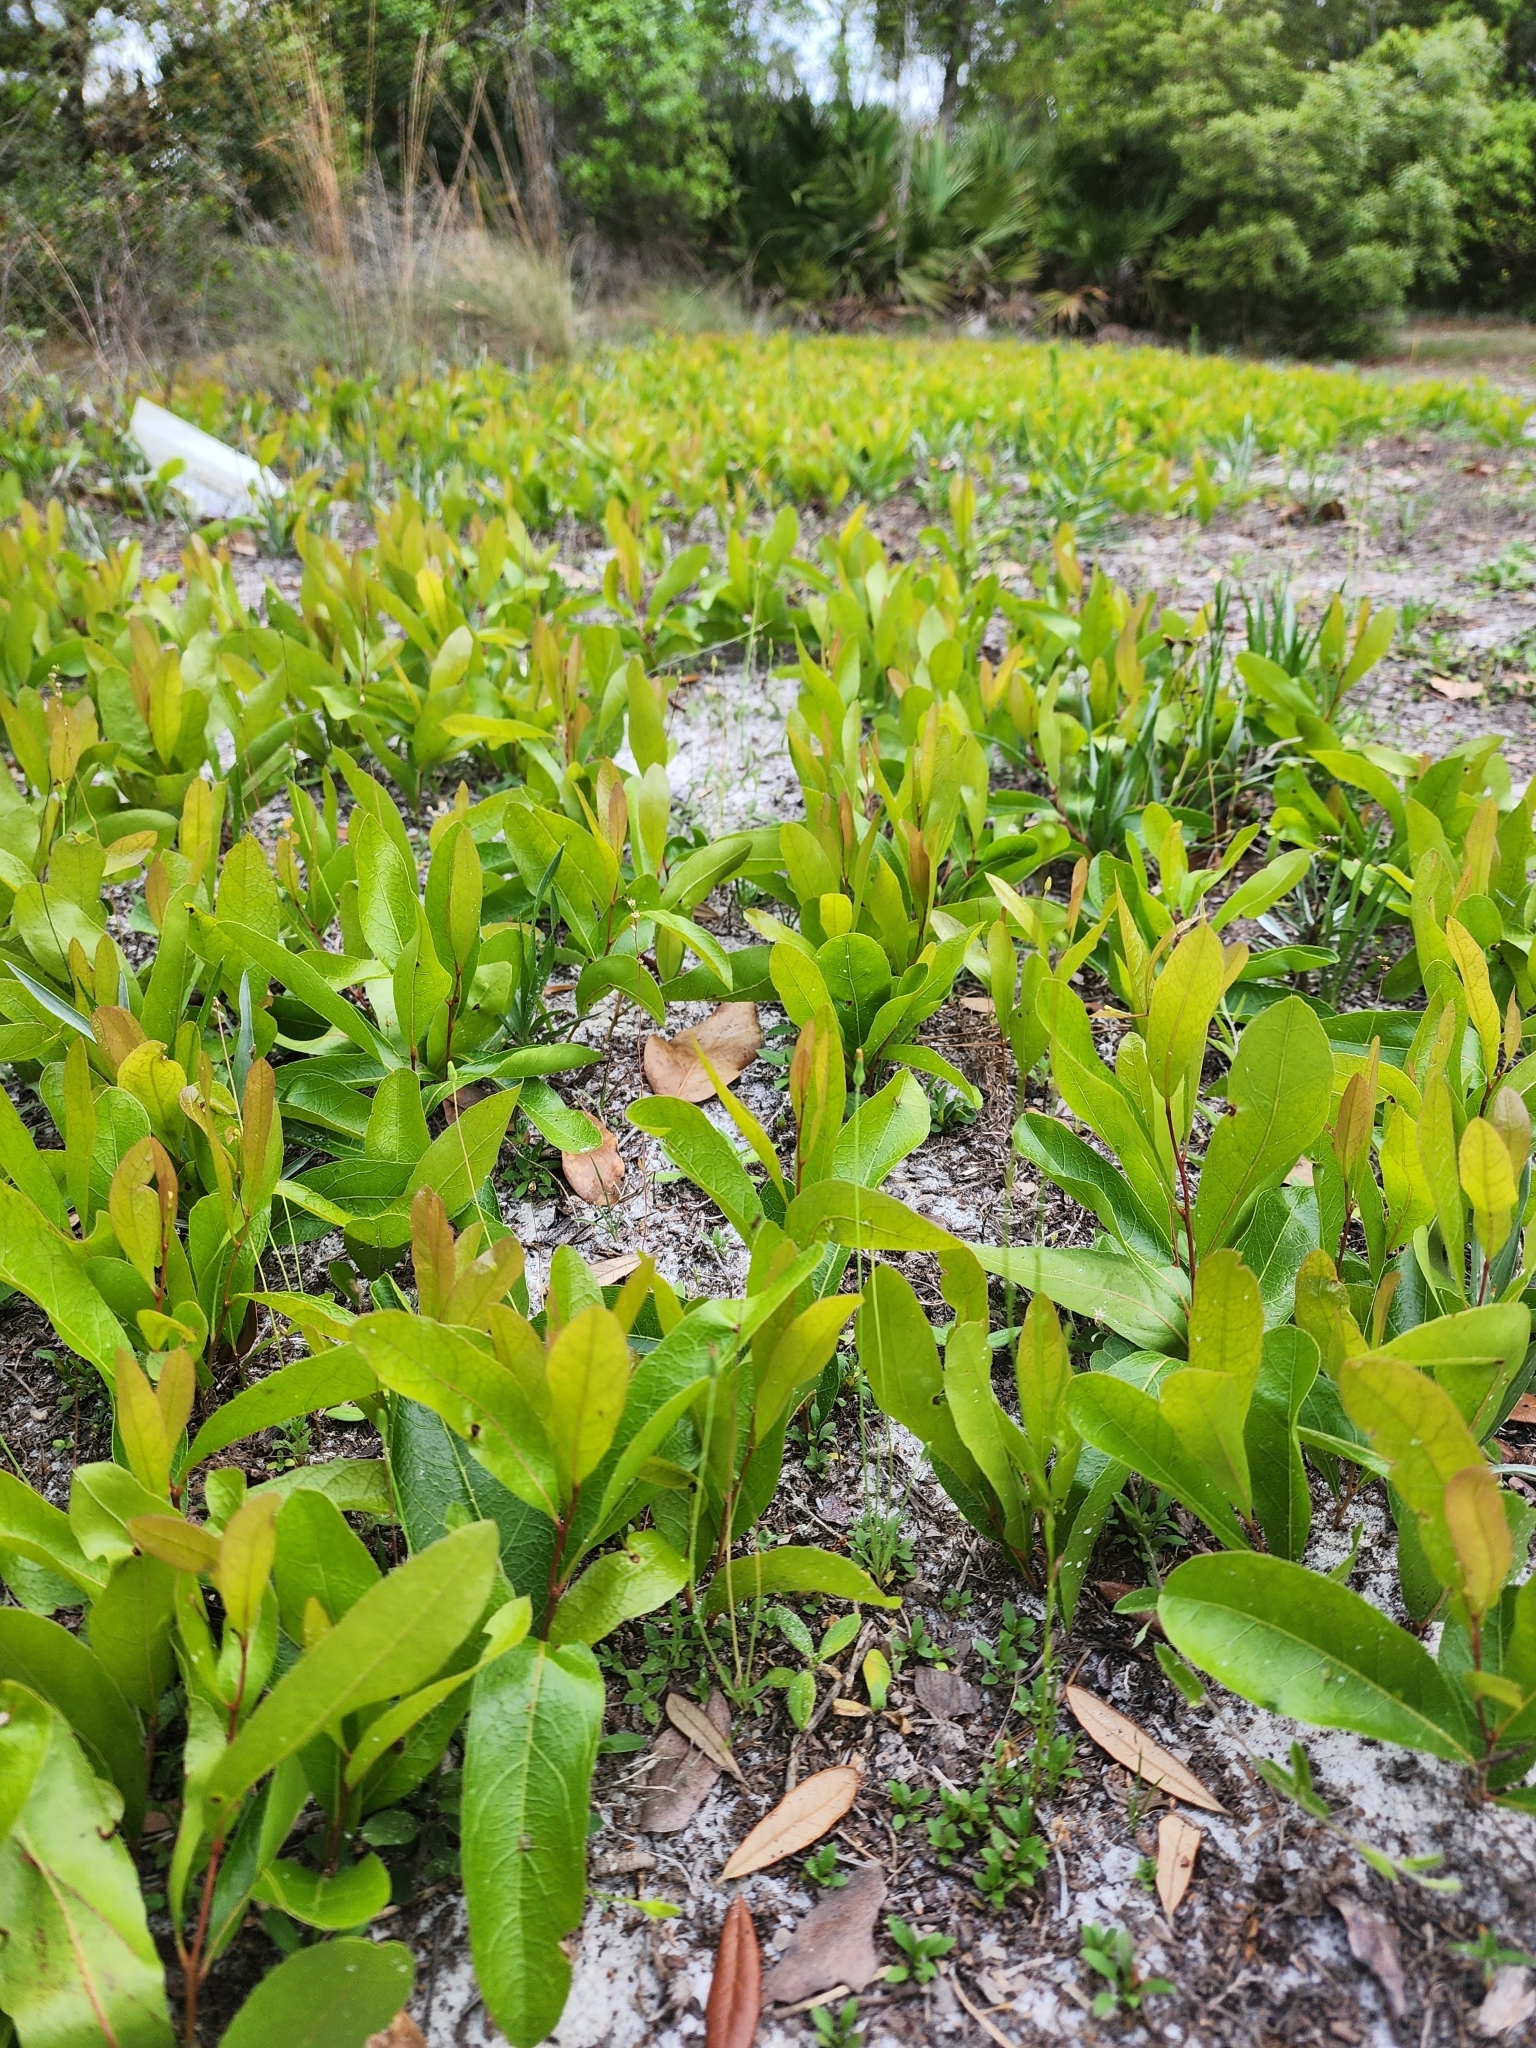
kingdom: Plantae
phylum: Tracheophyta
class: Magnoliopsida
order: Malpighiales
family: Chrysobalanaceae
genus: Geobalanus
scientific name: Geobalanus oblongifolius
